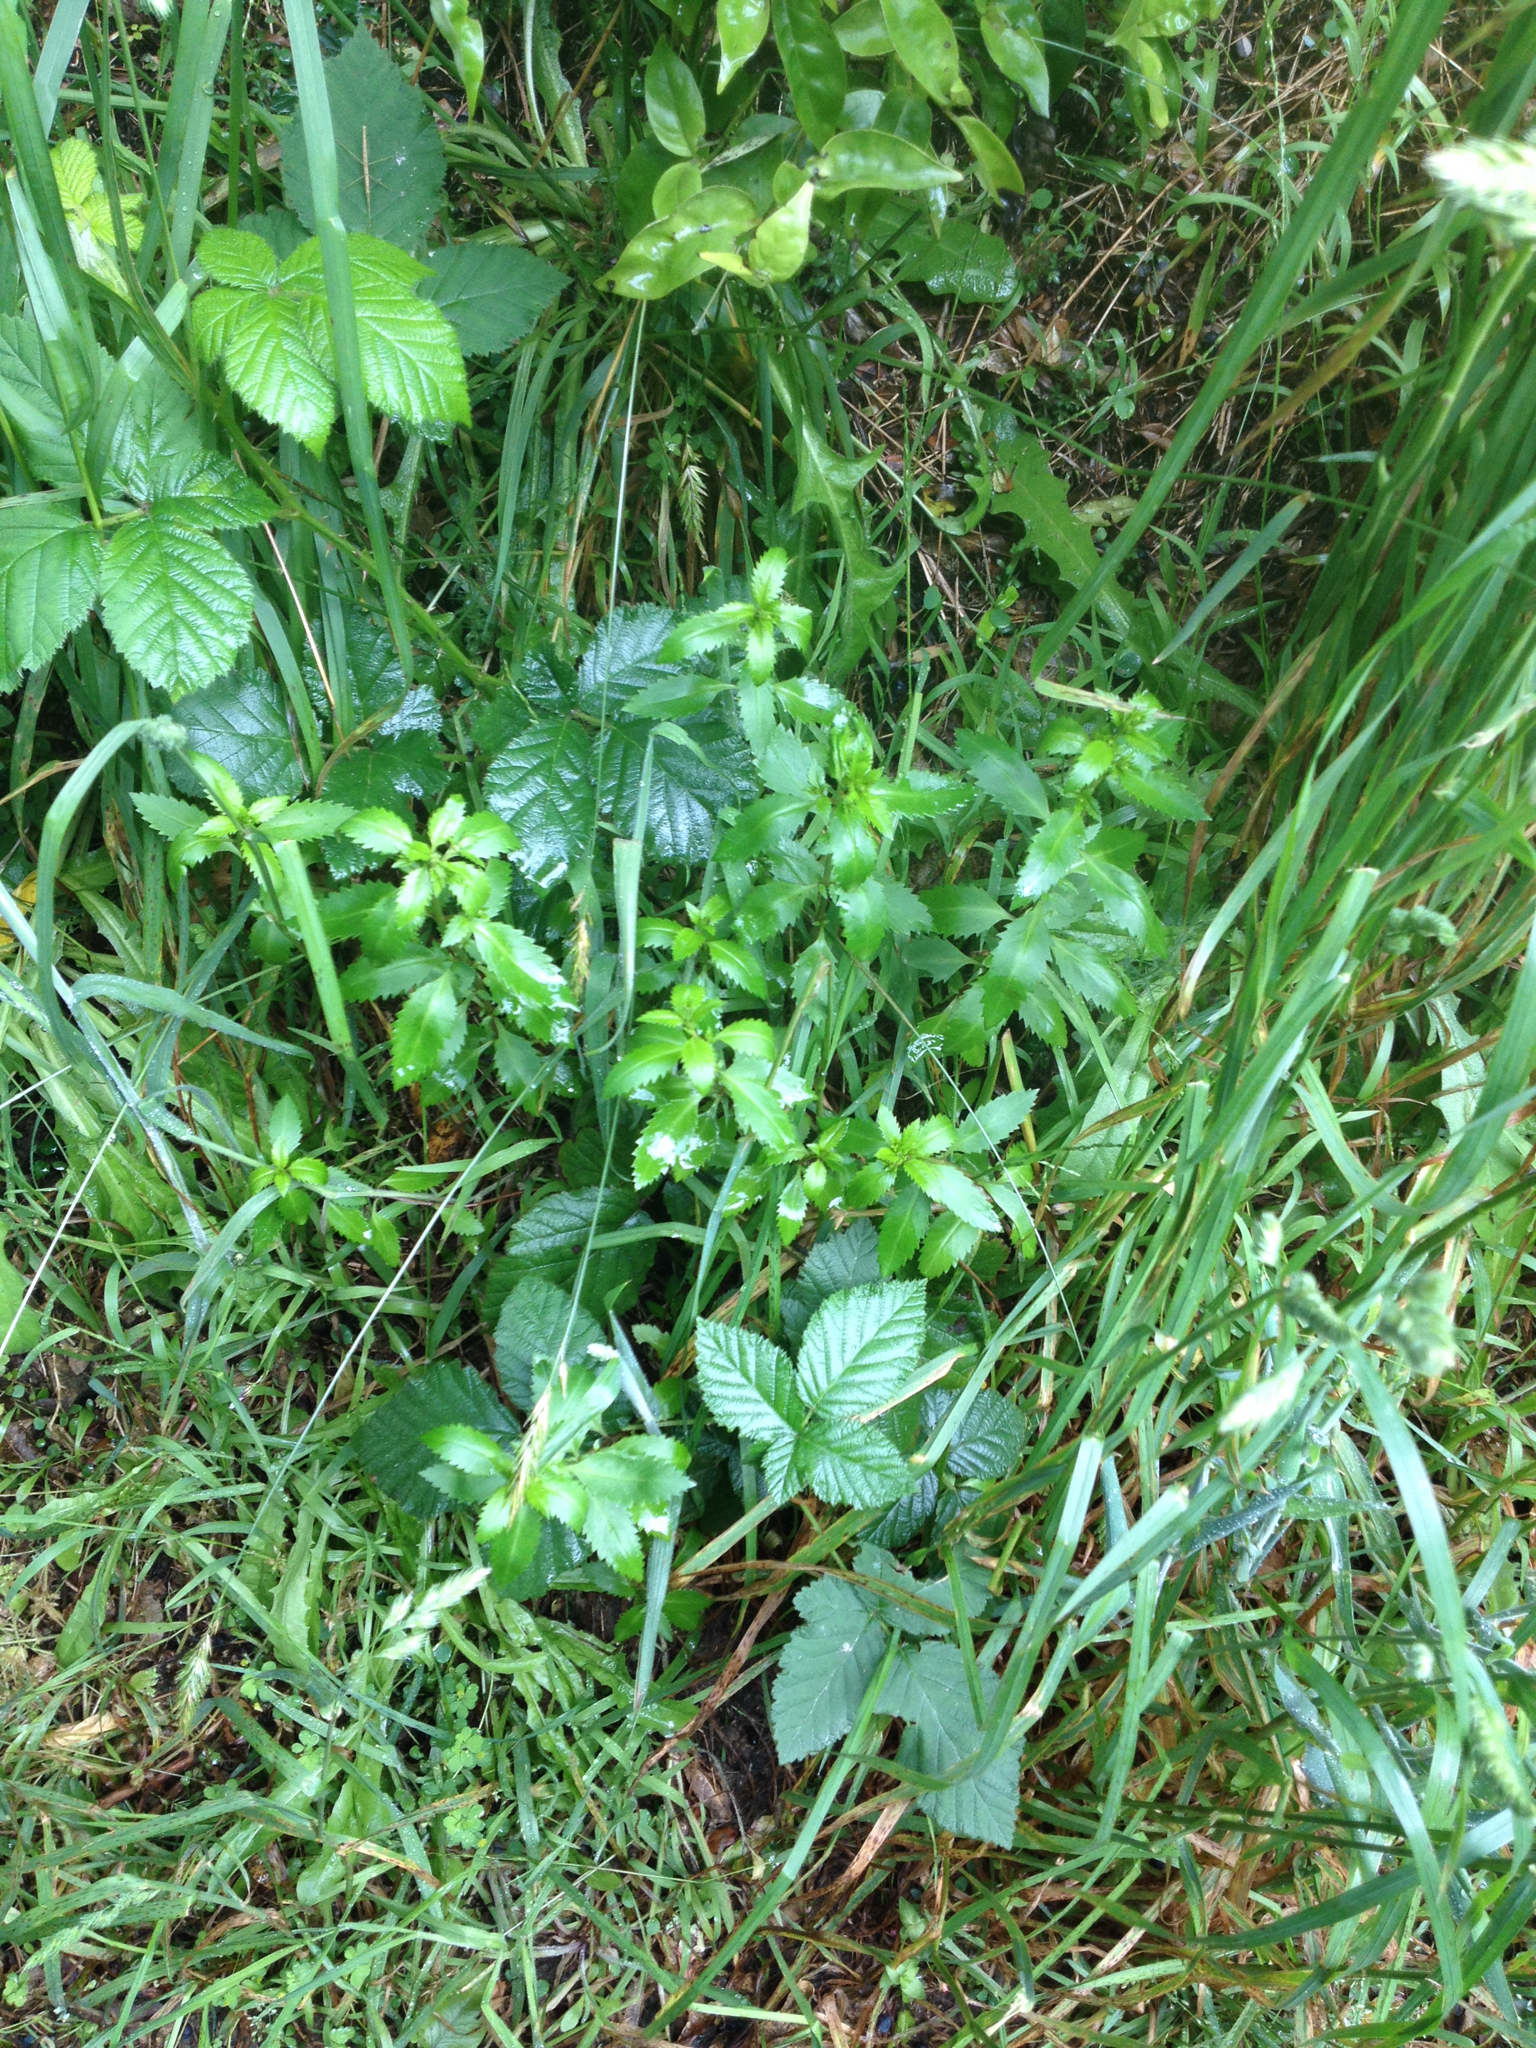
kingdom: Plantae
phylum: Tracheophyta
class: Magnoliopsida
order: Saxifragales
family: Haloragaceae
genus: Haloragis
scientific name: Haloragis erecta
